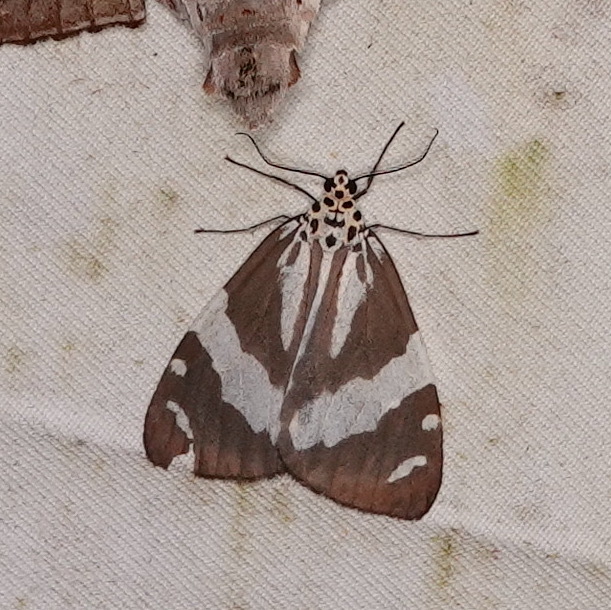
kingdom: Animalia
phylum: Arthropoda
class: Insecta
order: Lepidoptera
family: Erebidae
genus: Utetheisa
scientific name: Utetheisa abraxoides
